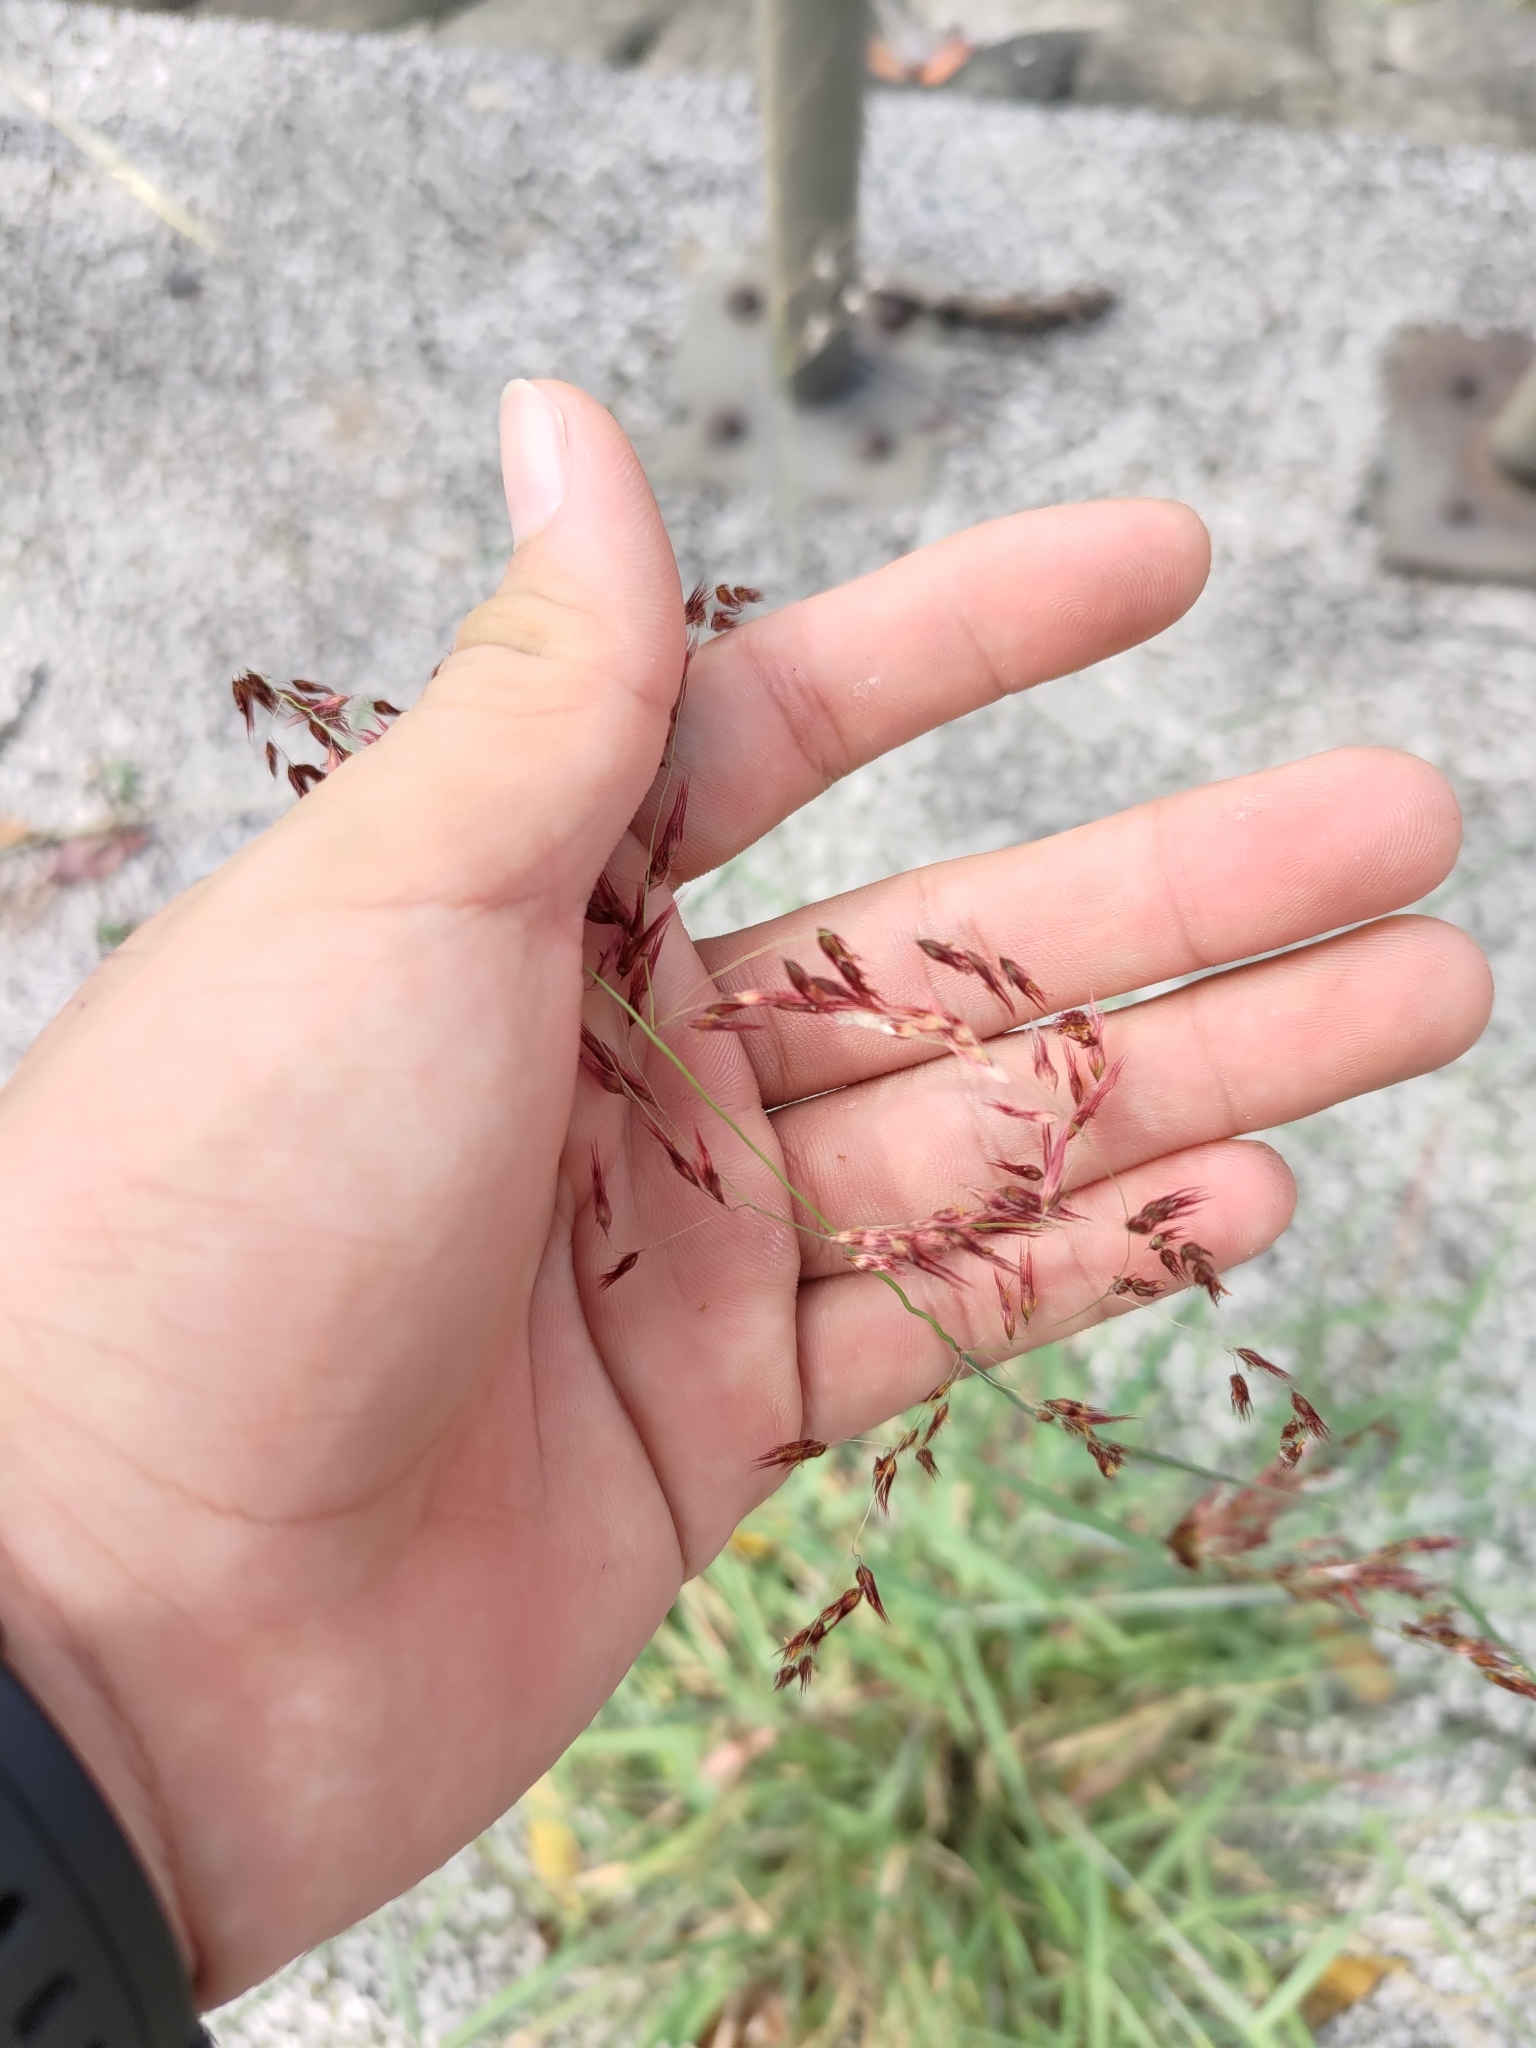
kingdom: Plantae
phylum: Tracheophyta
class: Liliopsida
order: Poales
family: Poaceae
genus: Melinis
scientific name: Melinis repens
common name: Rose natal grass
